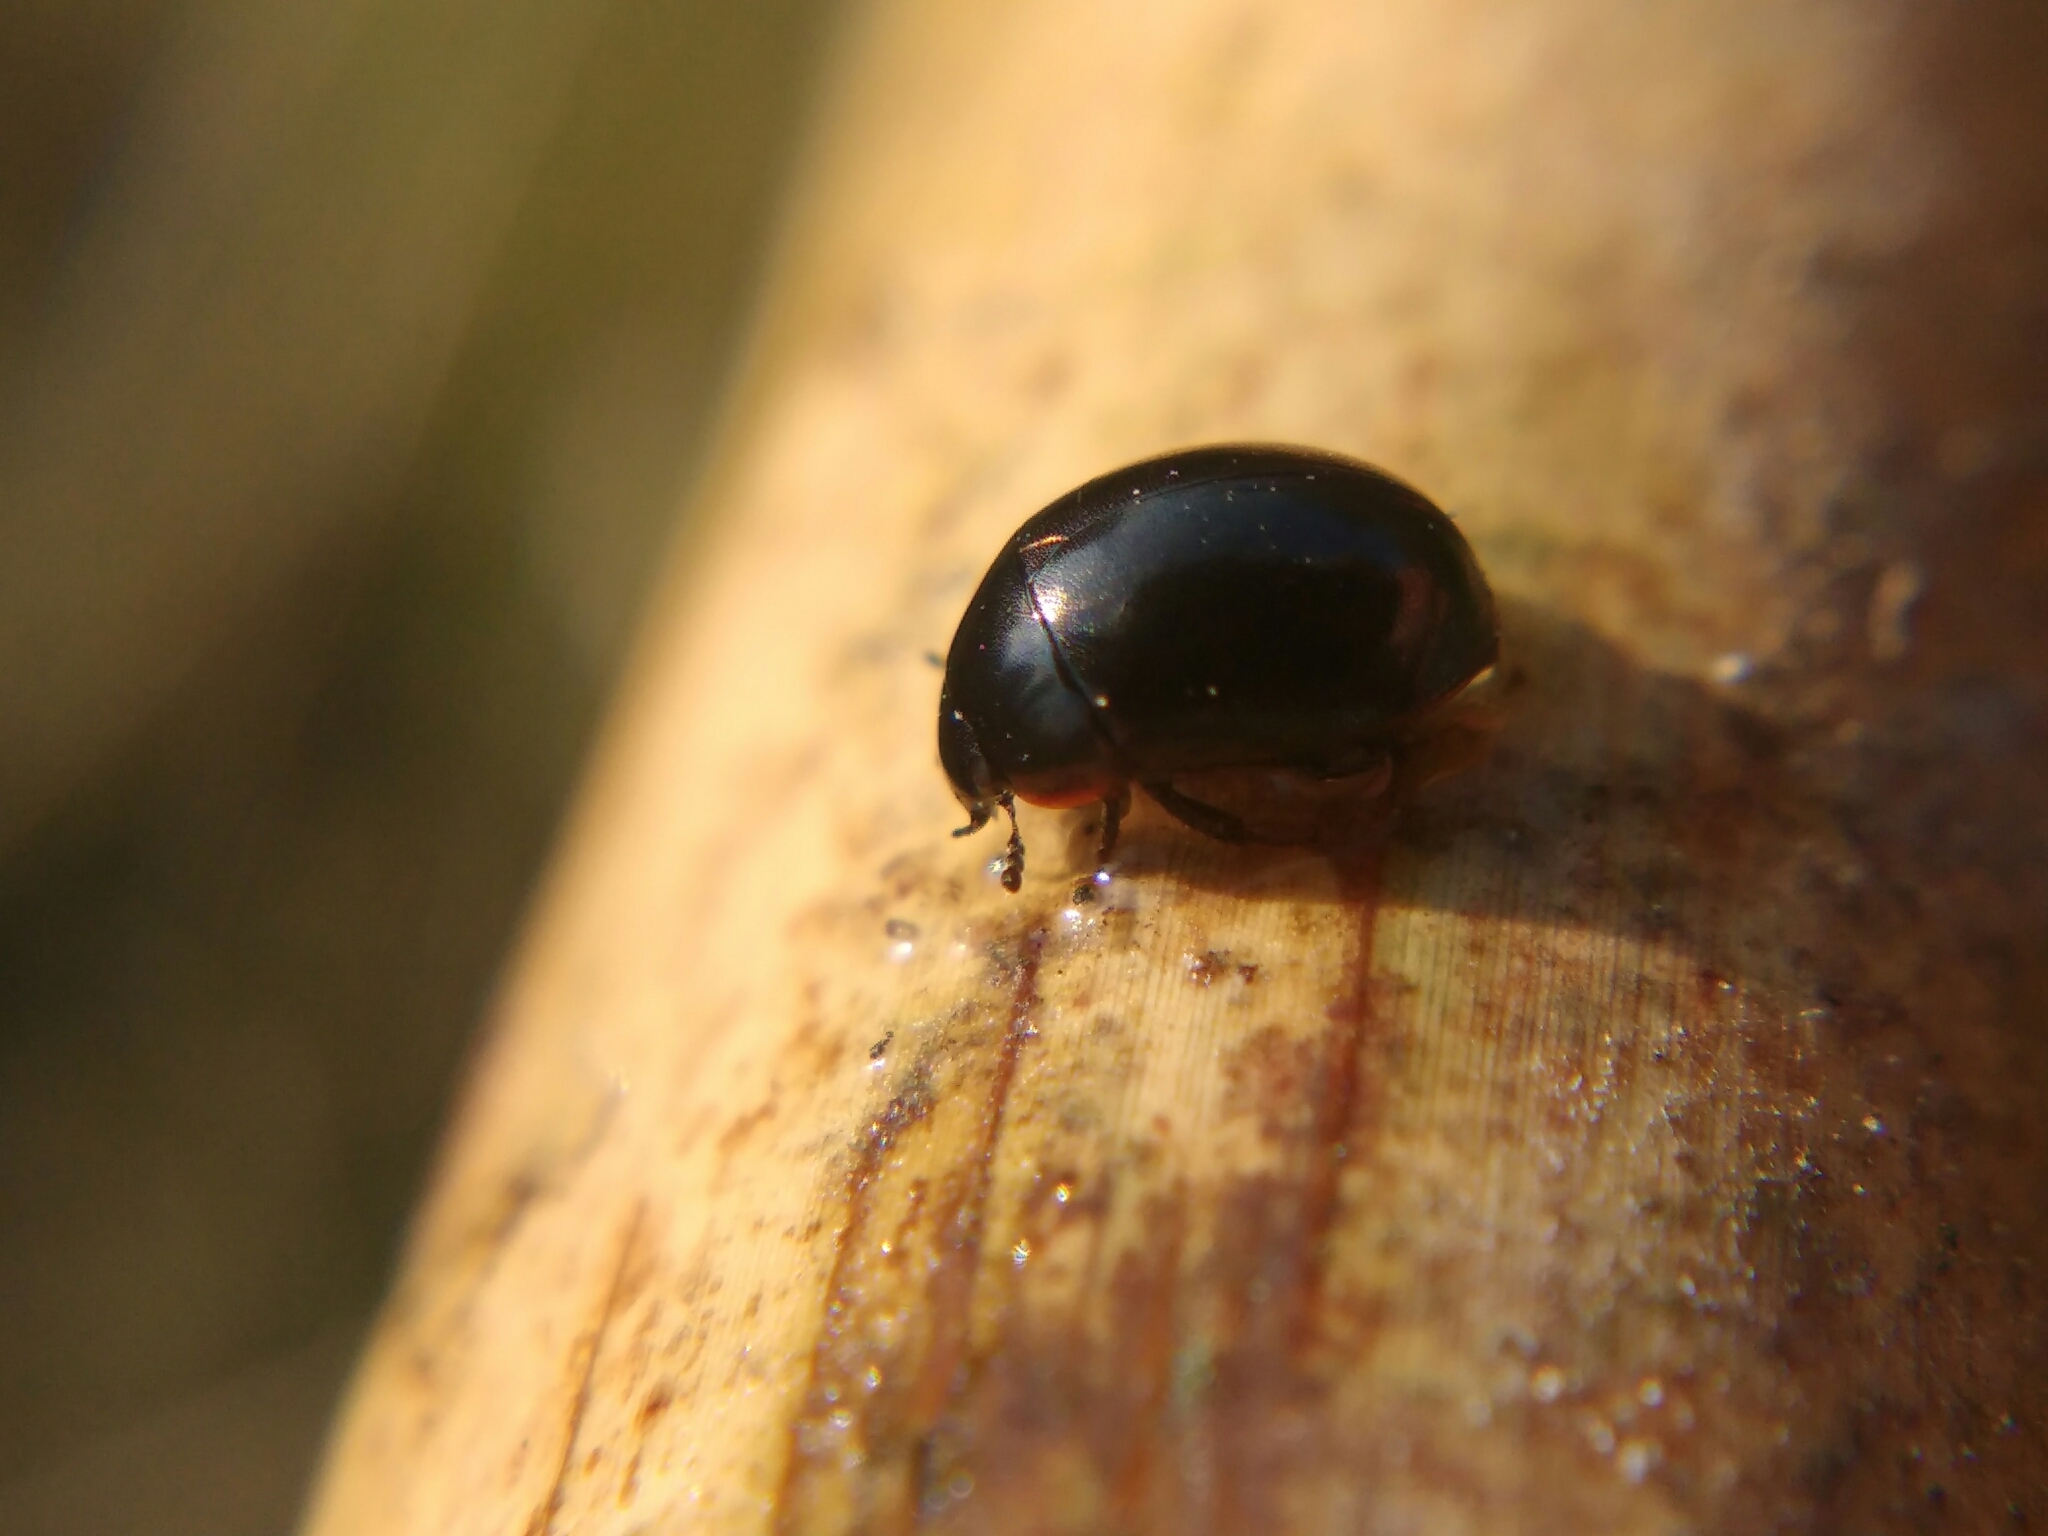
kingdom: Animalia
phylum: Arthropoda
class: Insecta
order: Coleoptera
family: Hydrophilidae
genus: Coelostoma
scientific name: Coelostoma orbiculare
